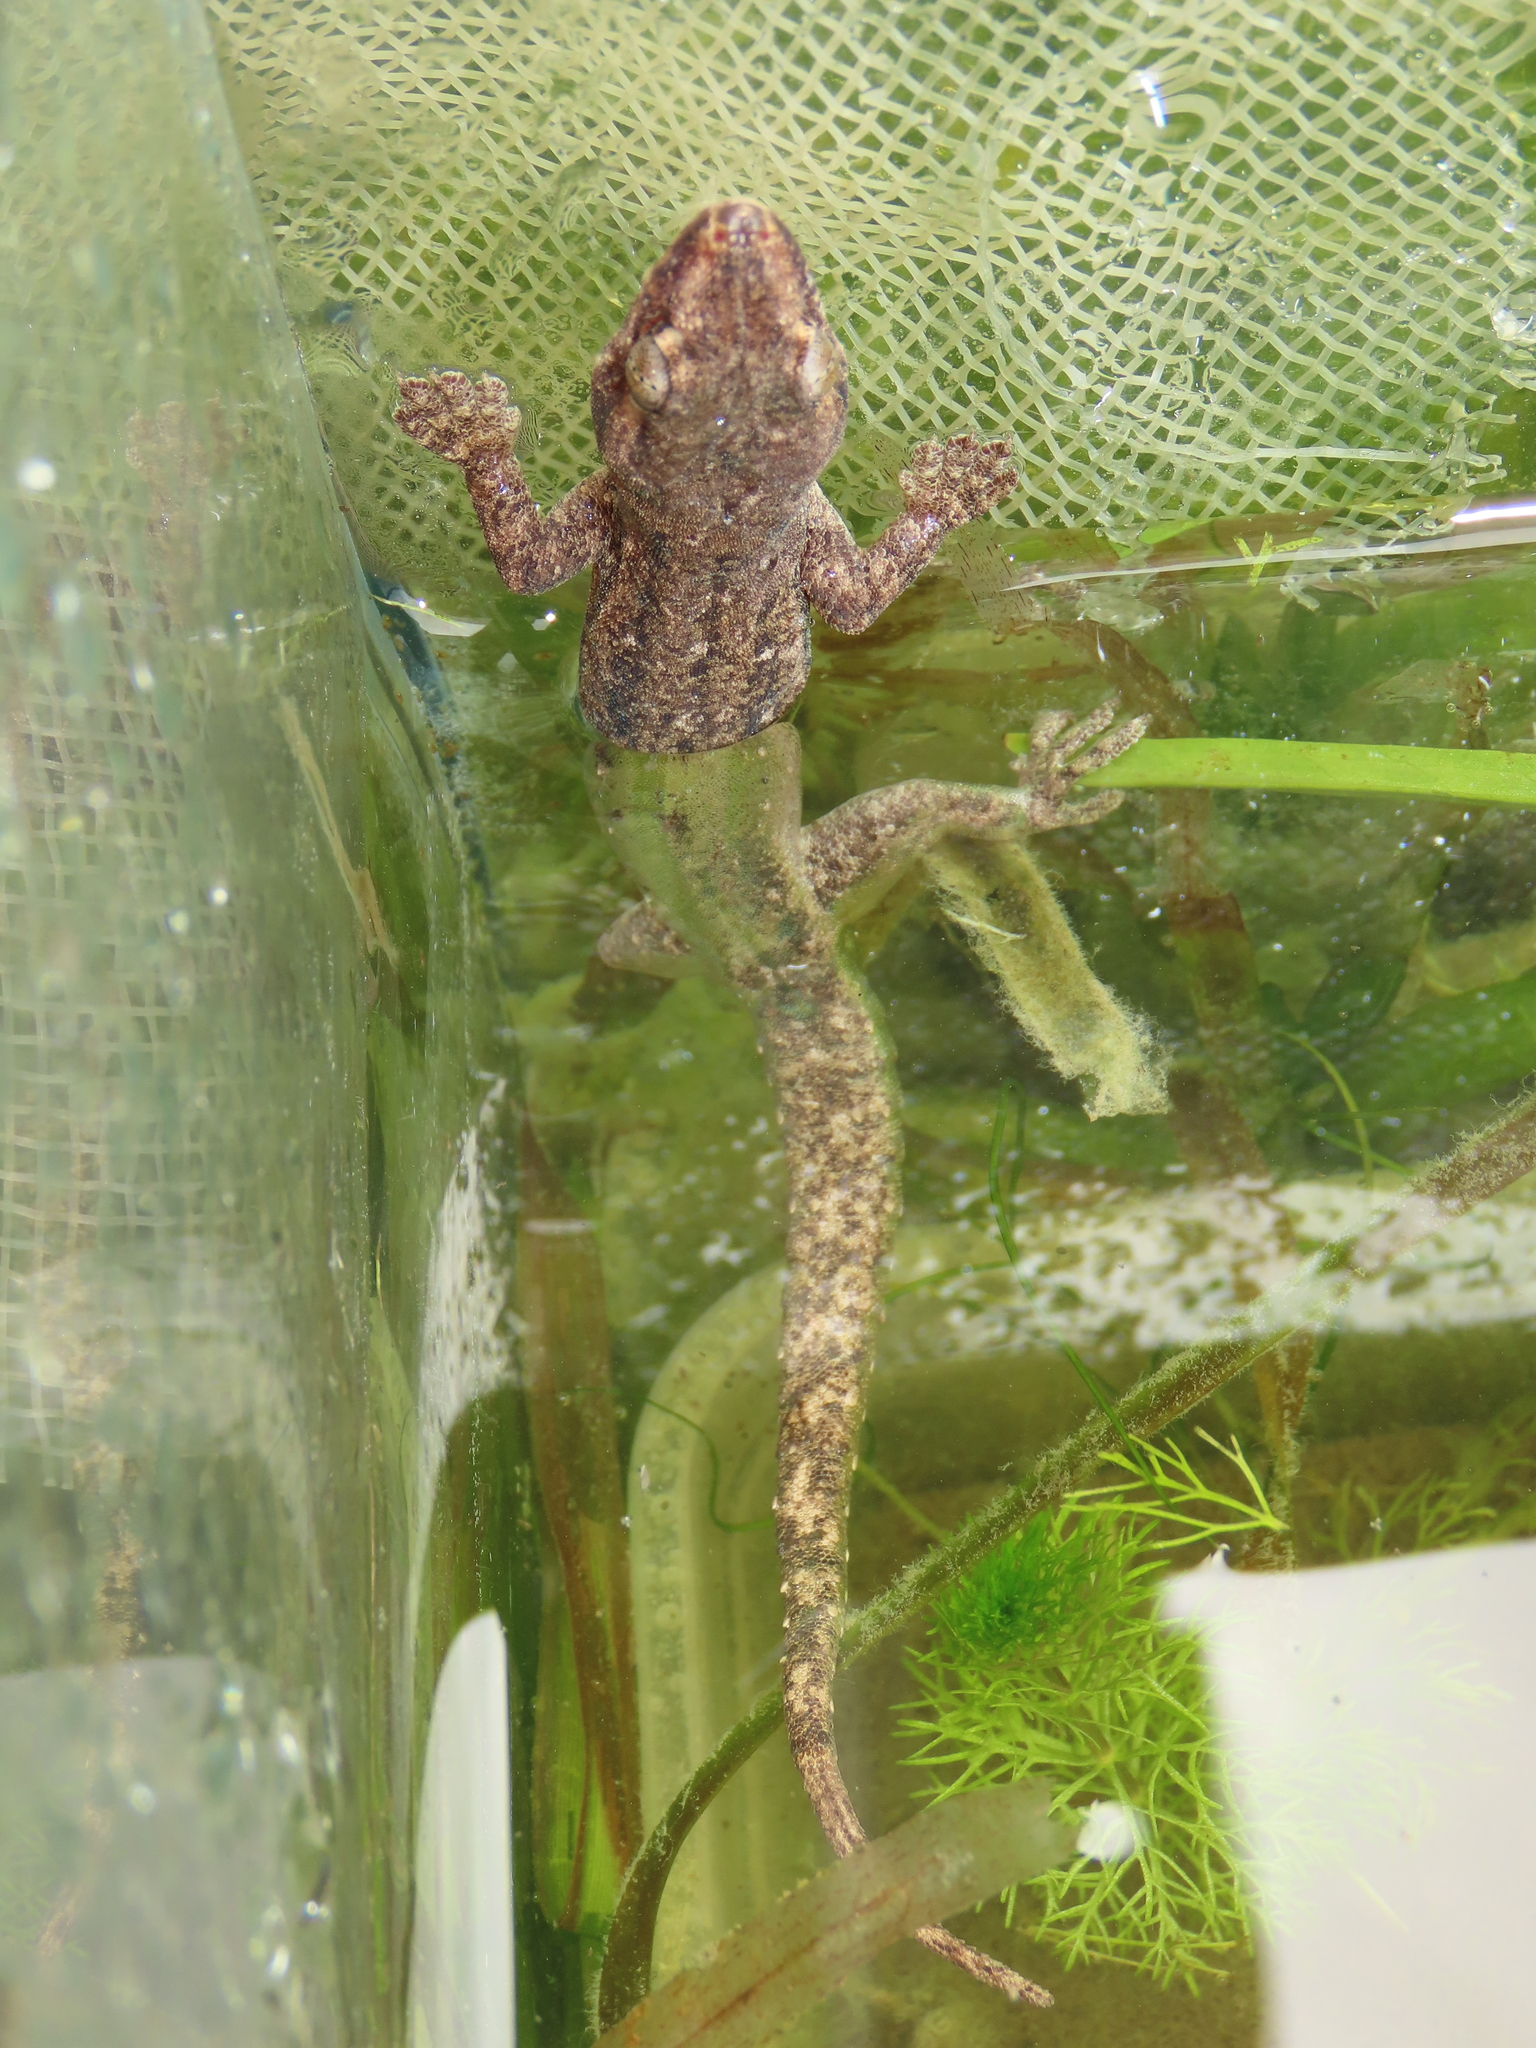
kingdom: Animalia
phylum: Chordata
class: Squamata
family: Gekkonidae
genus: Hemidactylus
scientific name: Hemidactylus frenatus
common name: Common house gecko
